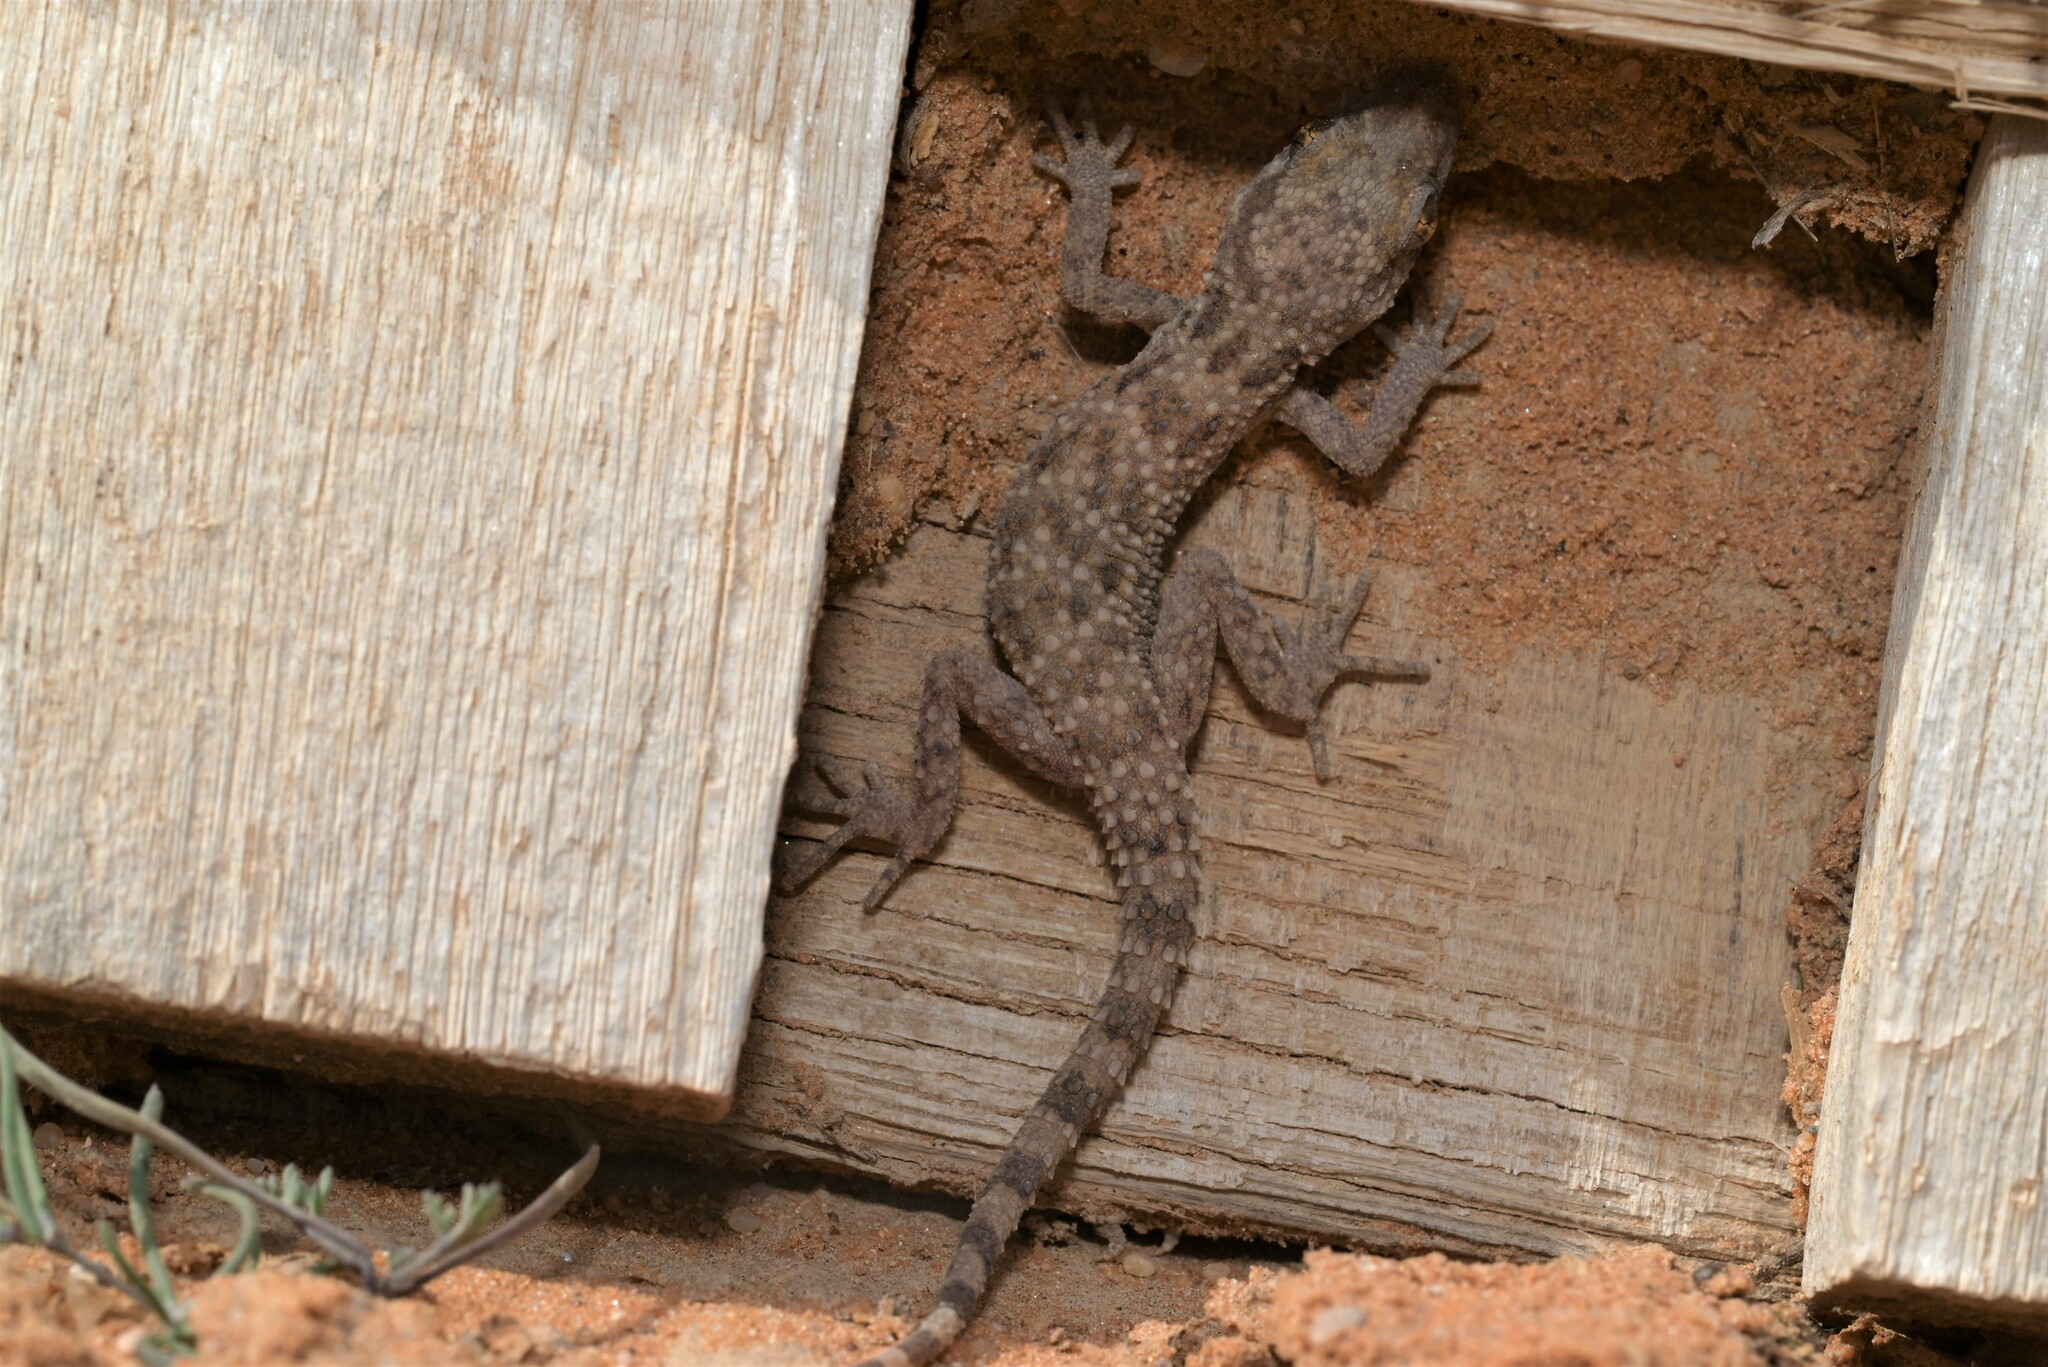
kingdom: Animalia
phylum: Chordata
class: Squamata
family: Gekkonidae
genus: Bunopus
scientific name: Bunopus tuberculatus
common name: Southern tuberculated gecko
